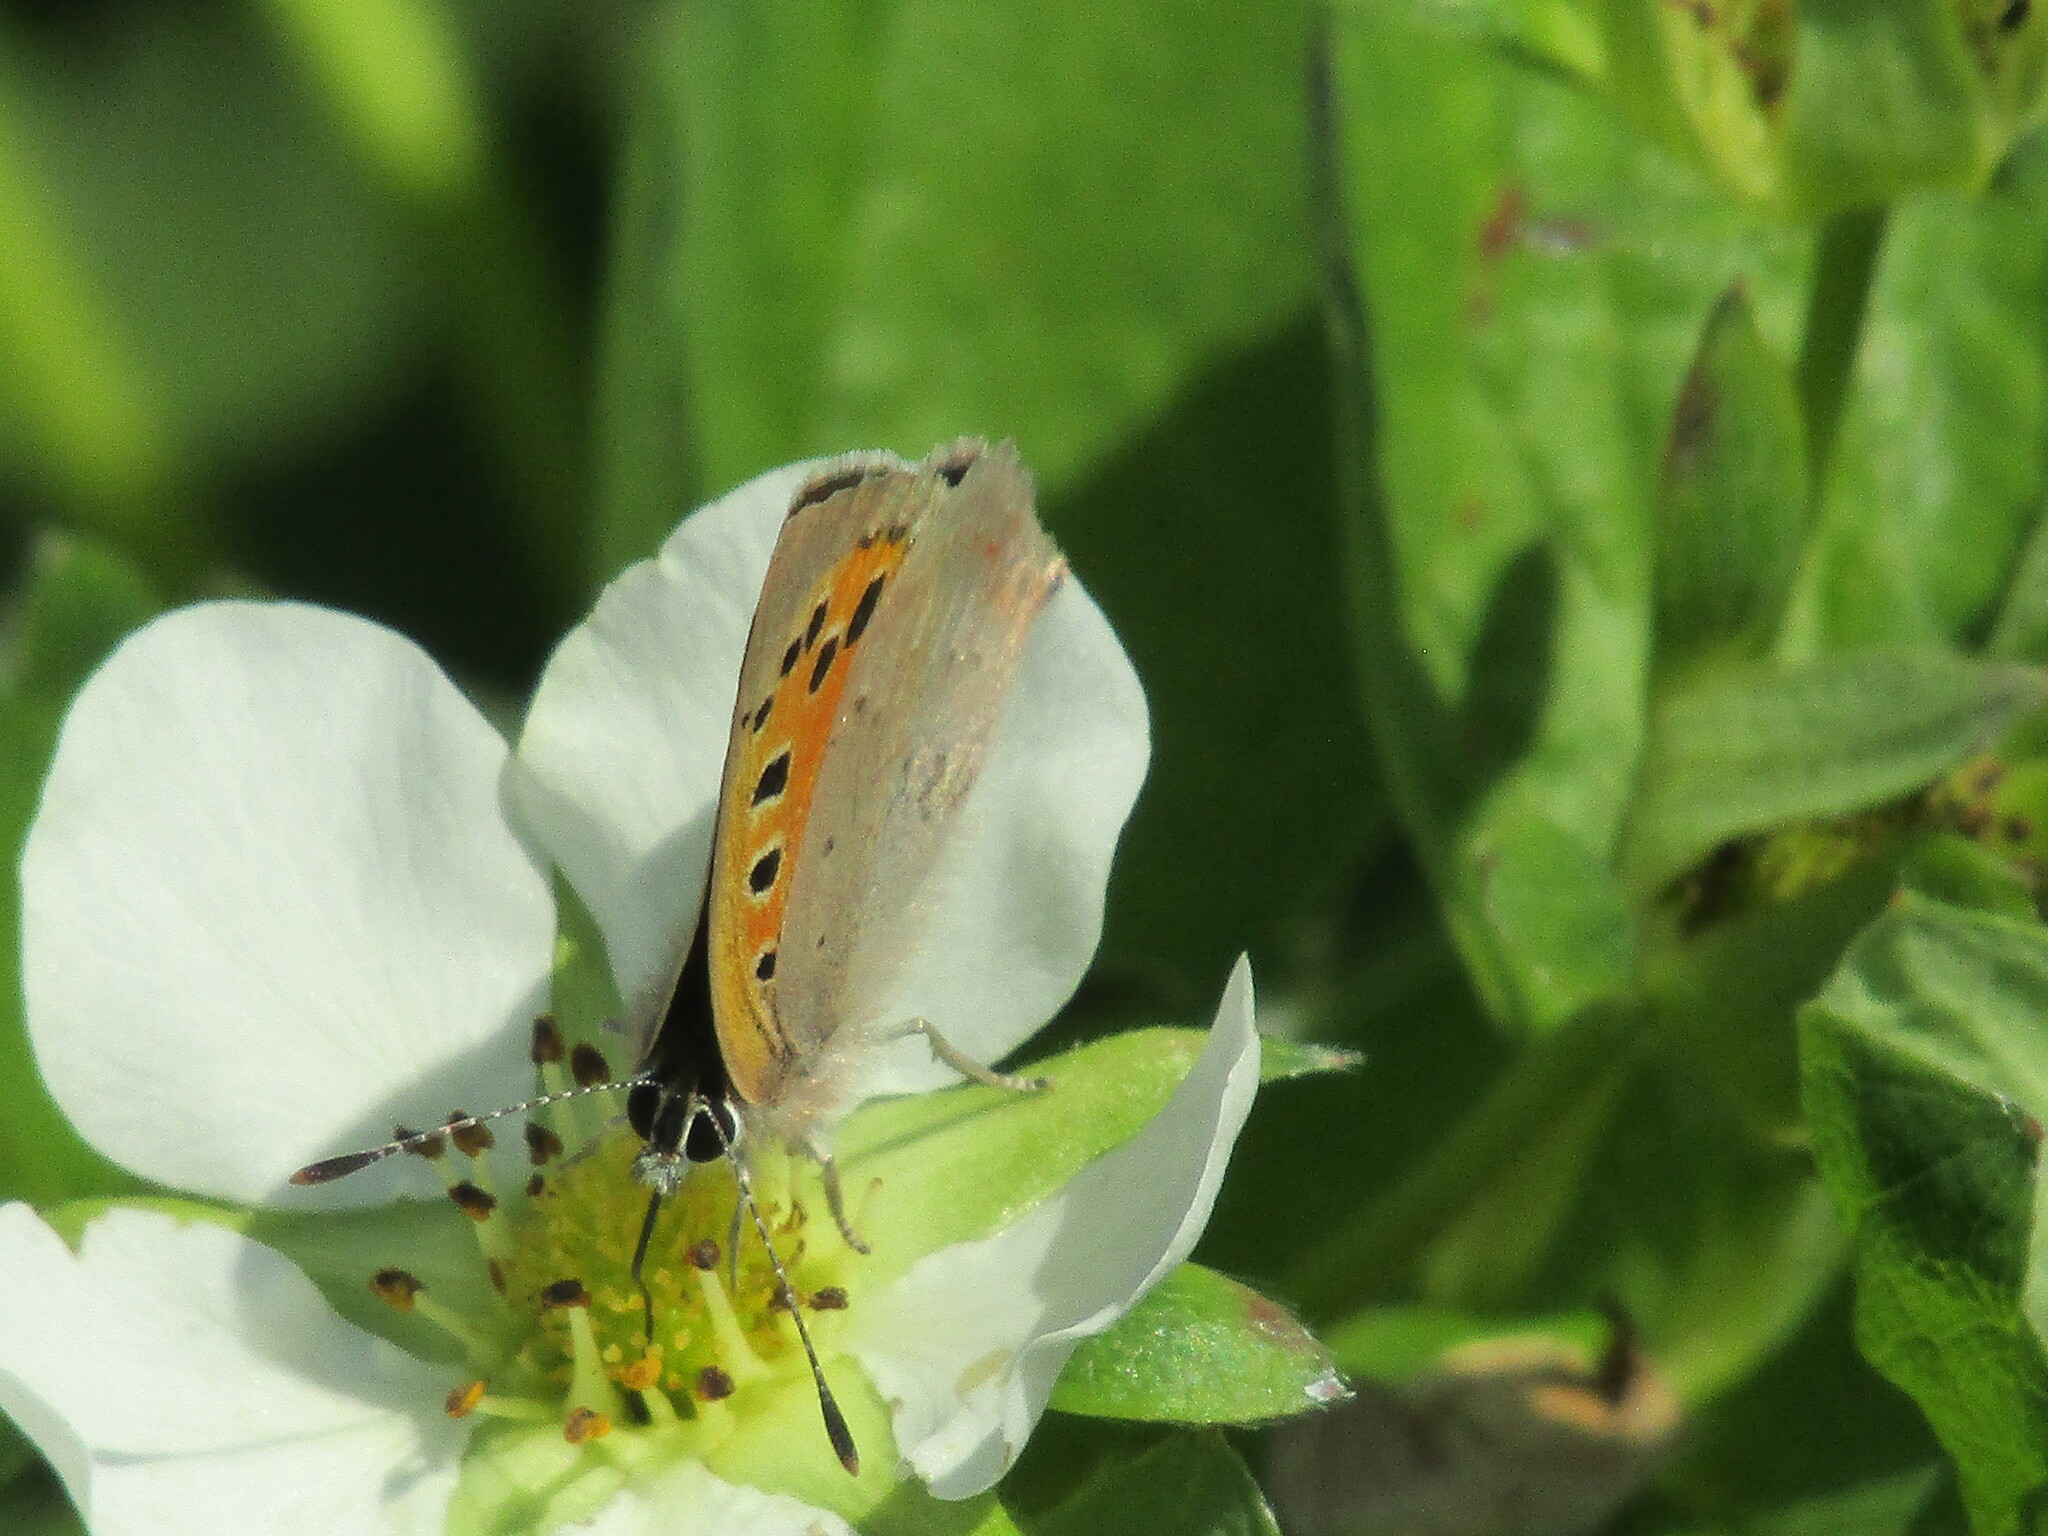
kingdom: Animalia
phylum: Arthropoda
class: Insecta
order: Lepidoptera
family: Lycaenidae
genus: Lycaena
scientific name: Lycaena phlaeas
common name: Small copper
